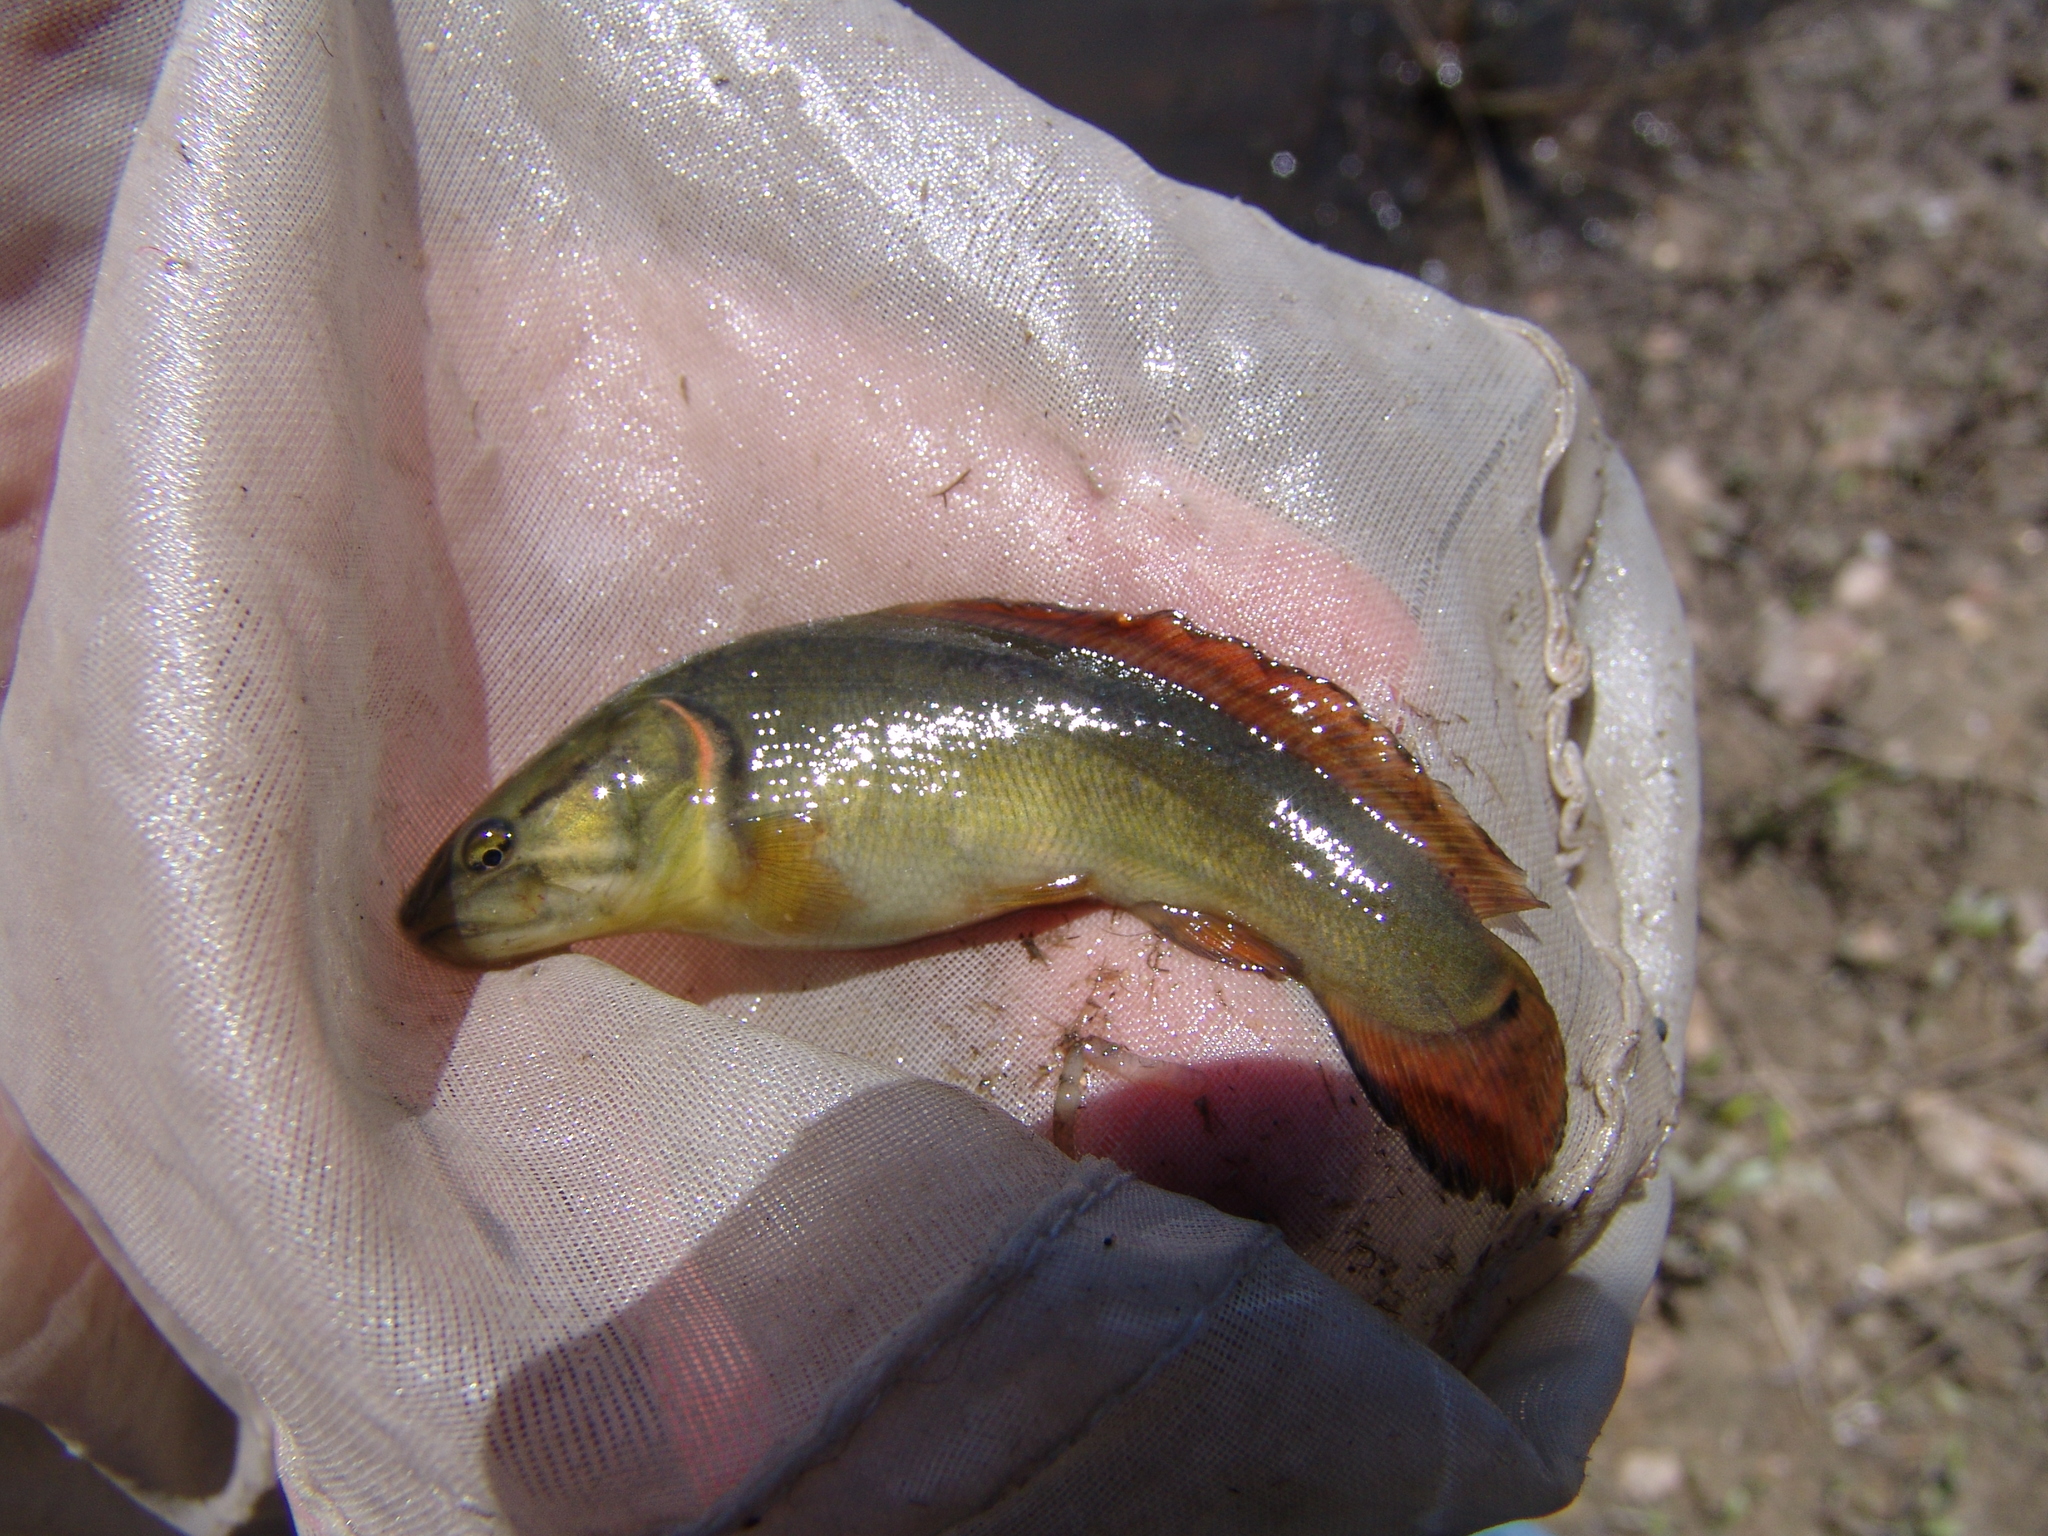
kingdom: Animalia
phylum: Chordata
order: Amiiformes
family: Amiidae
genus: Amia
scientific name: Amia calva
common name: Bowfin
